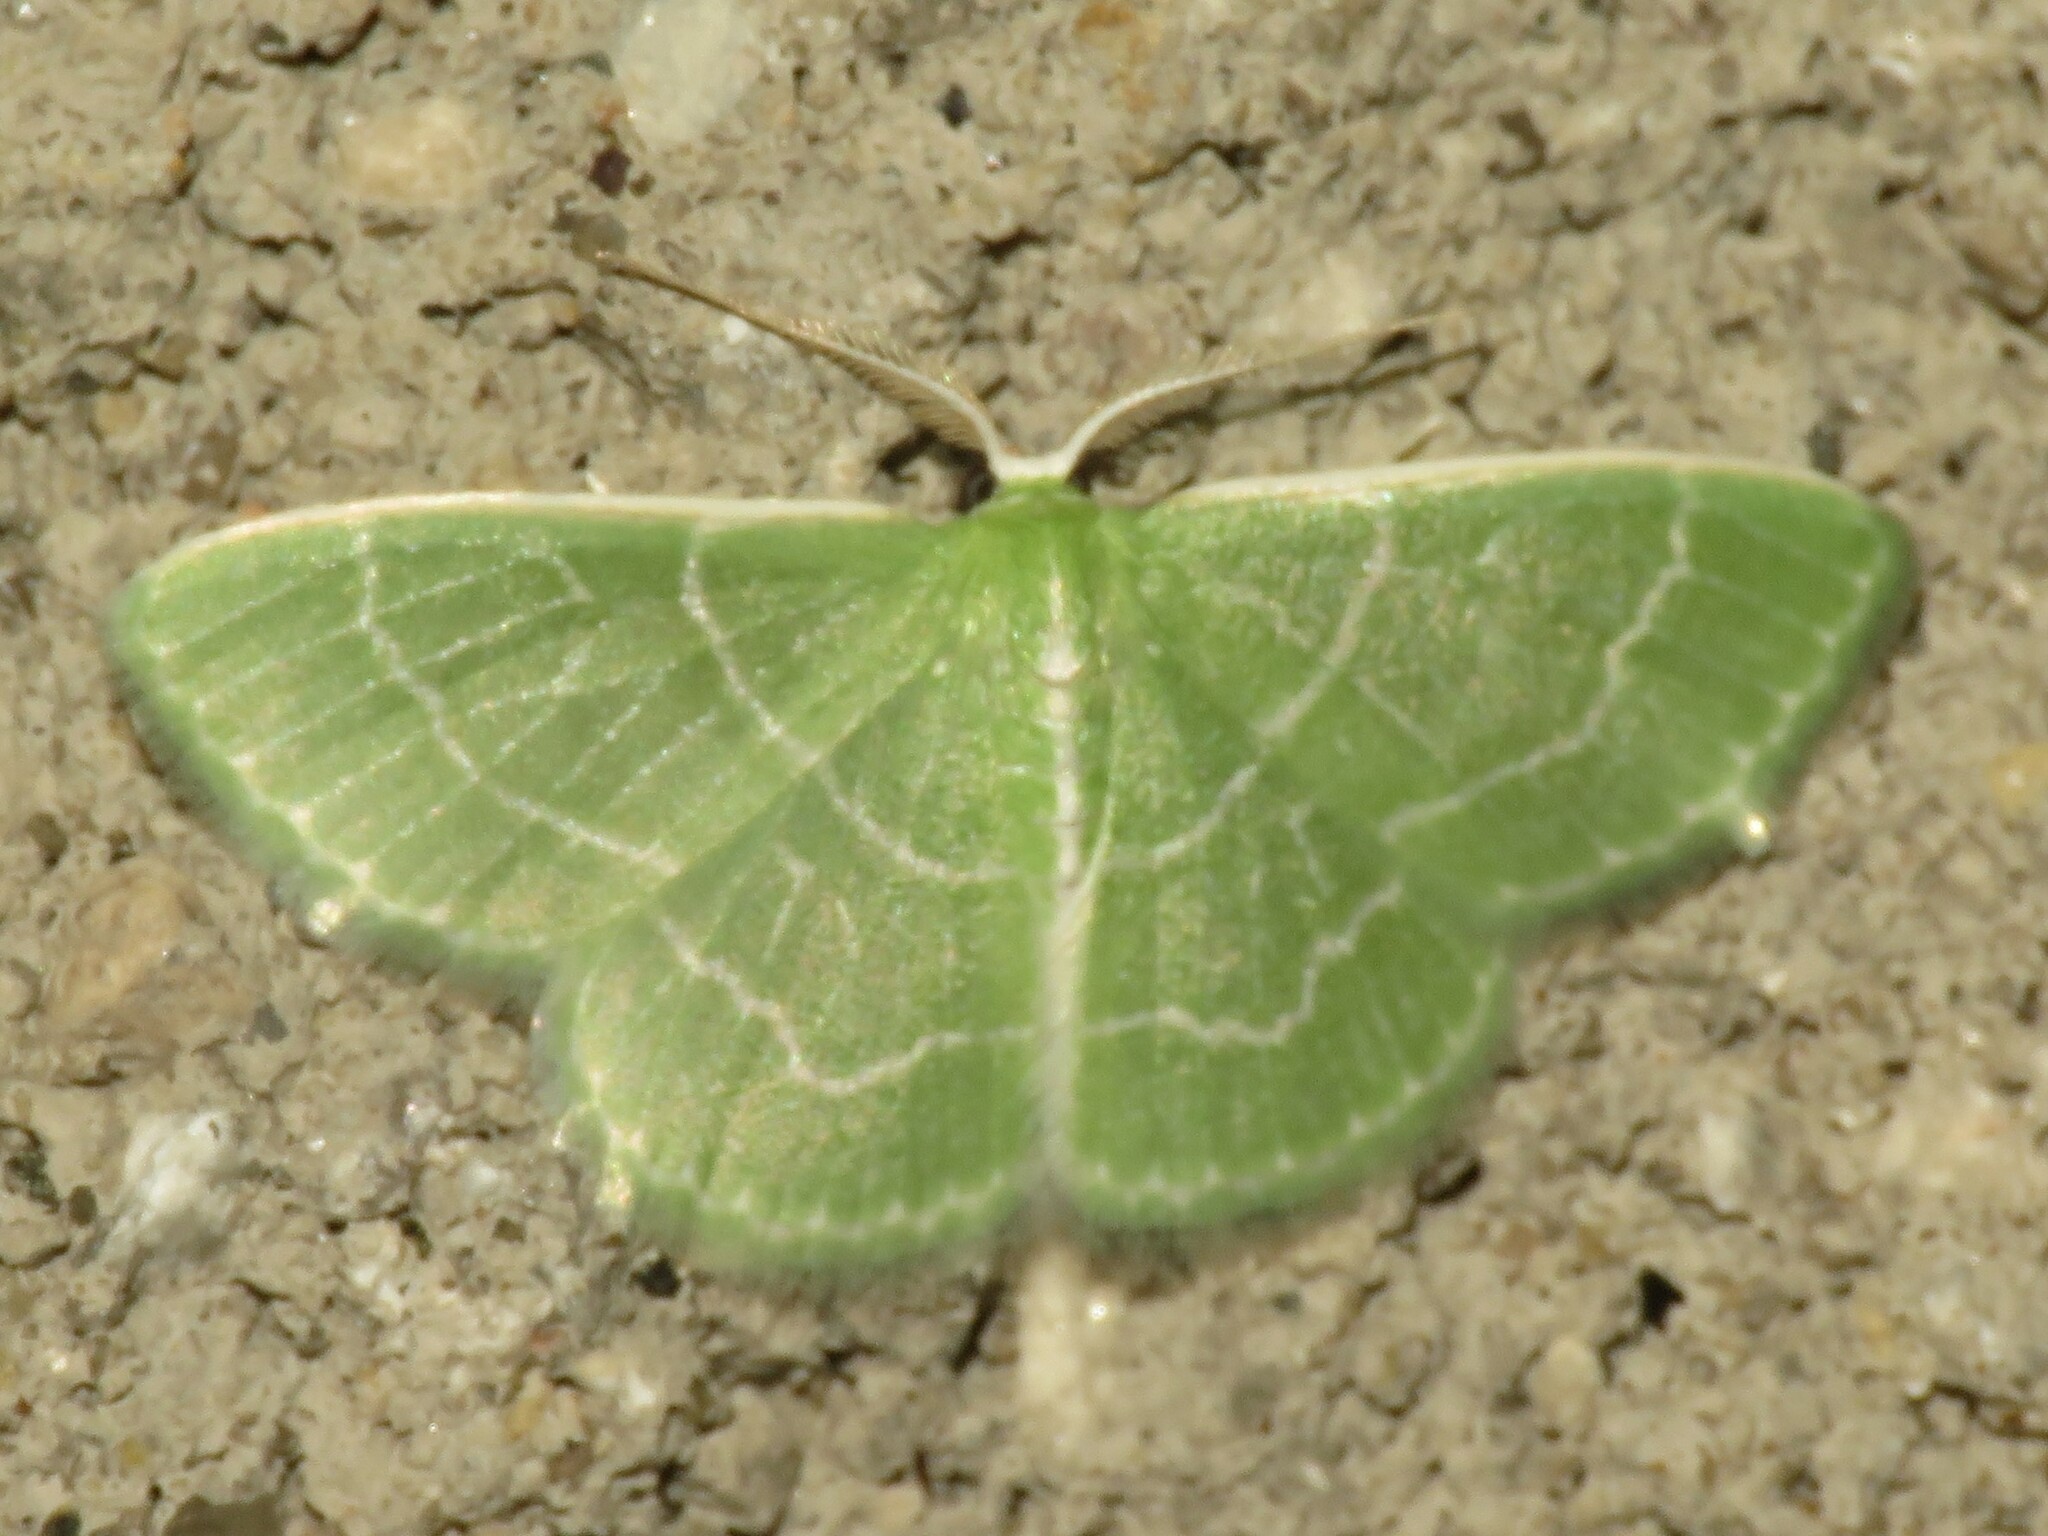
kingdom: Animalia
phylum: Arthropoda
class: Insecta
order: Lepidoptera
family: Geometridae
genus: Synchlora
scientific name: Synchlora aerata
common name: Wavy-lined emerald
